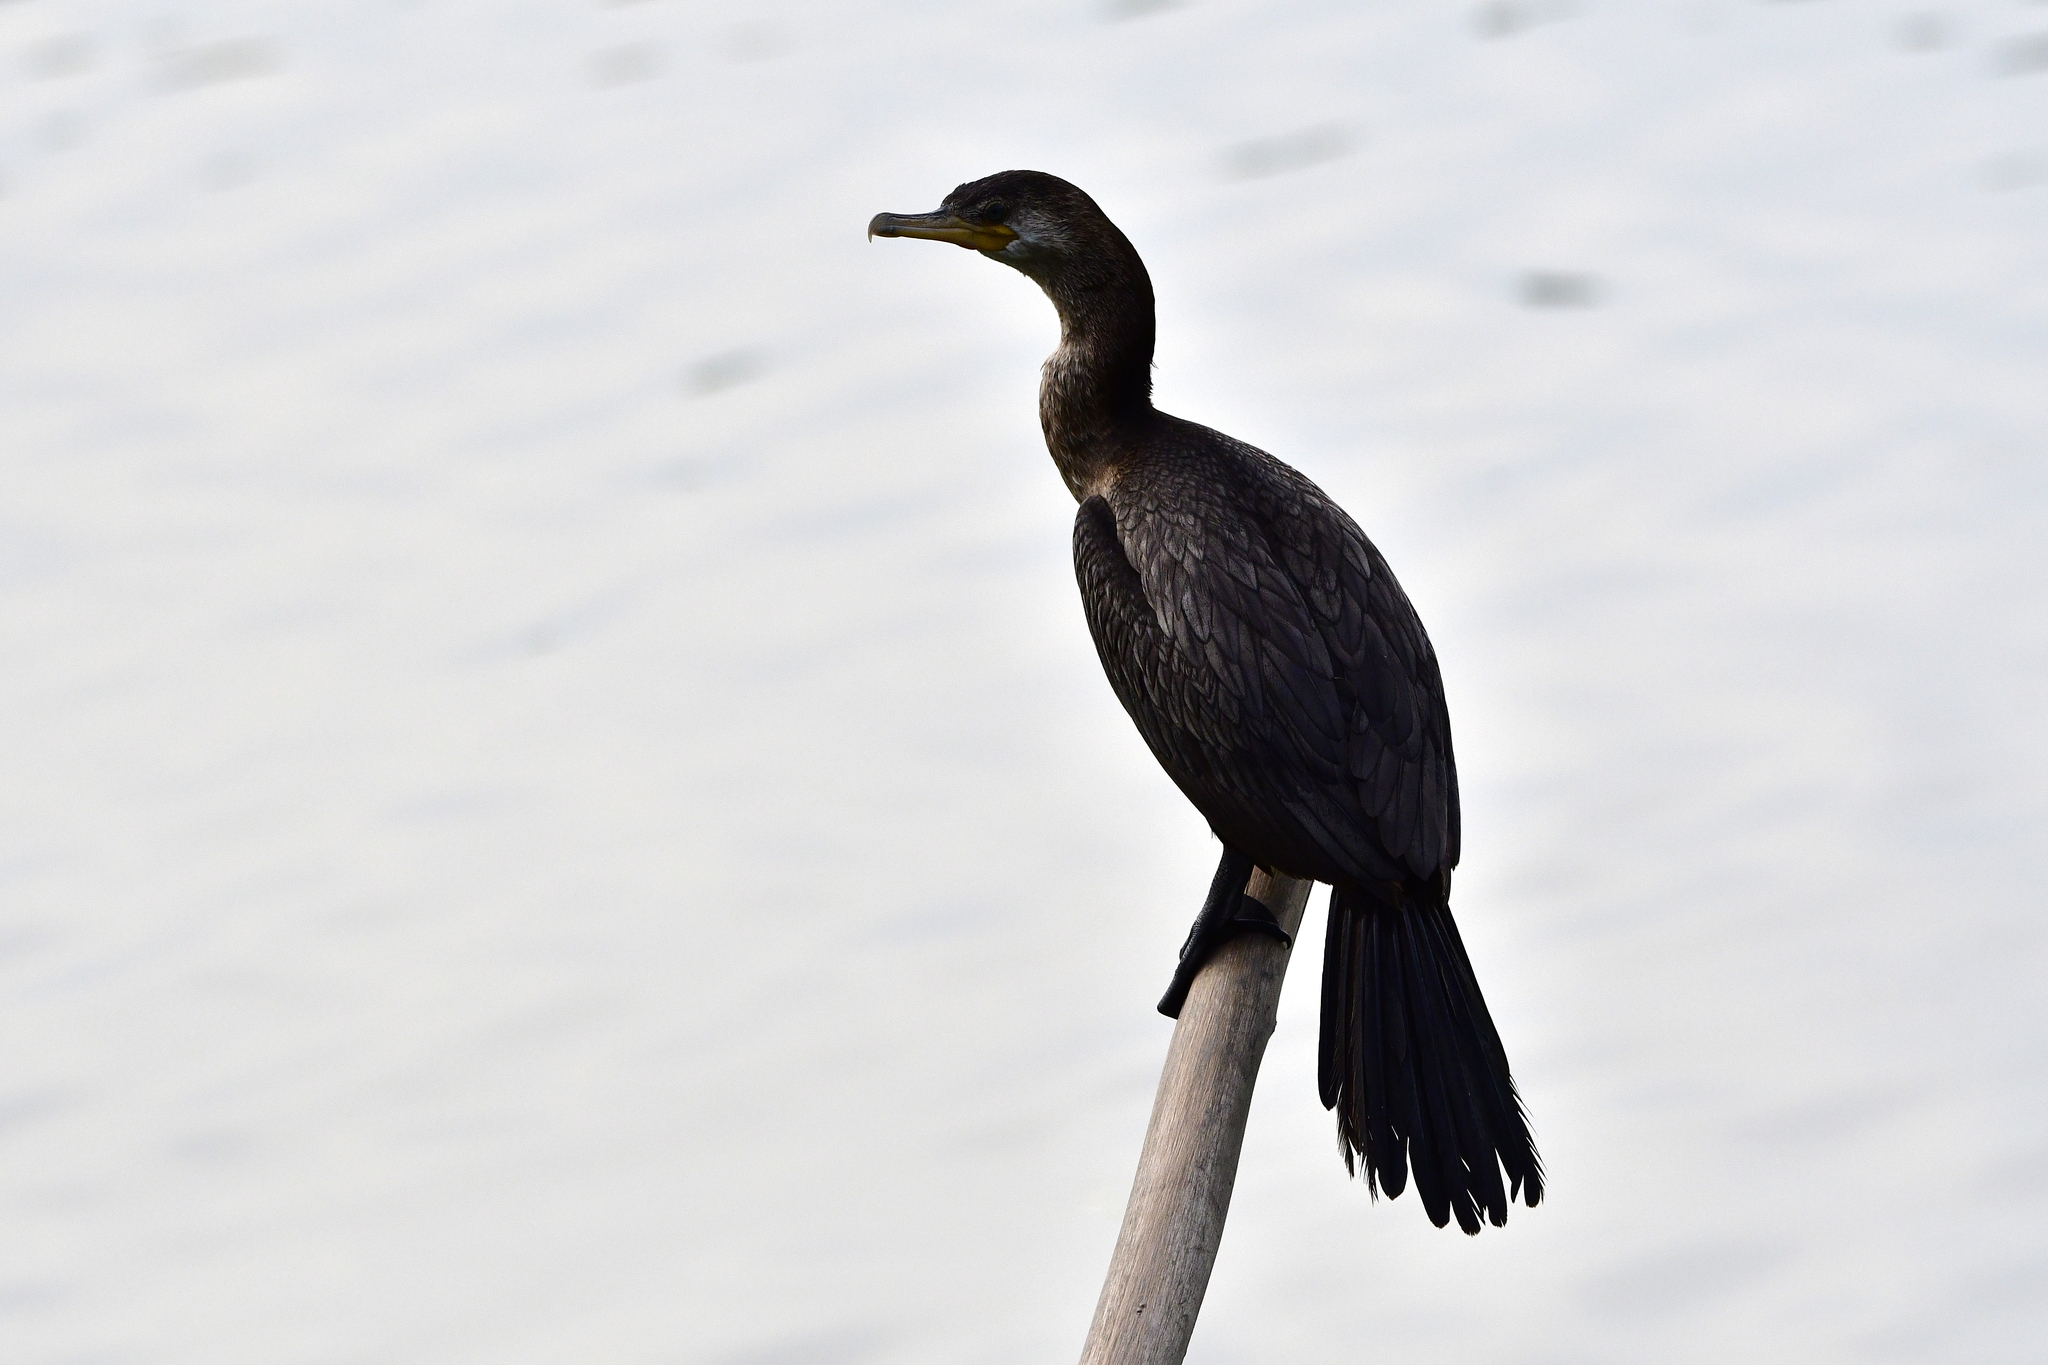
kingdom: Animalia
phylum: Chordata
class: Aves
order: Suliformes
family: Phalacrocoracidae
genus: Phalacrocorax
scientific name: Phalacrocorax brasilianus
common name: Neotropic cormorant
